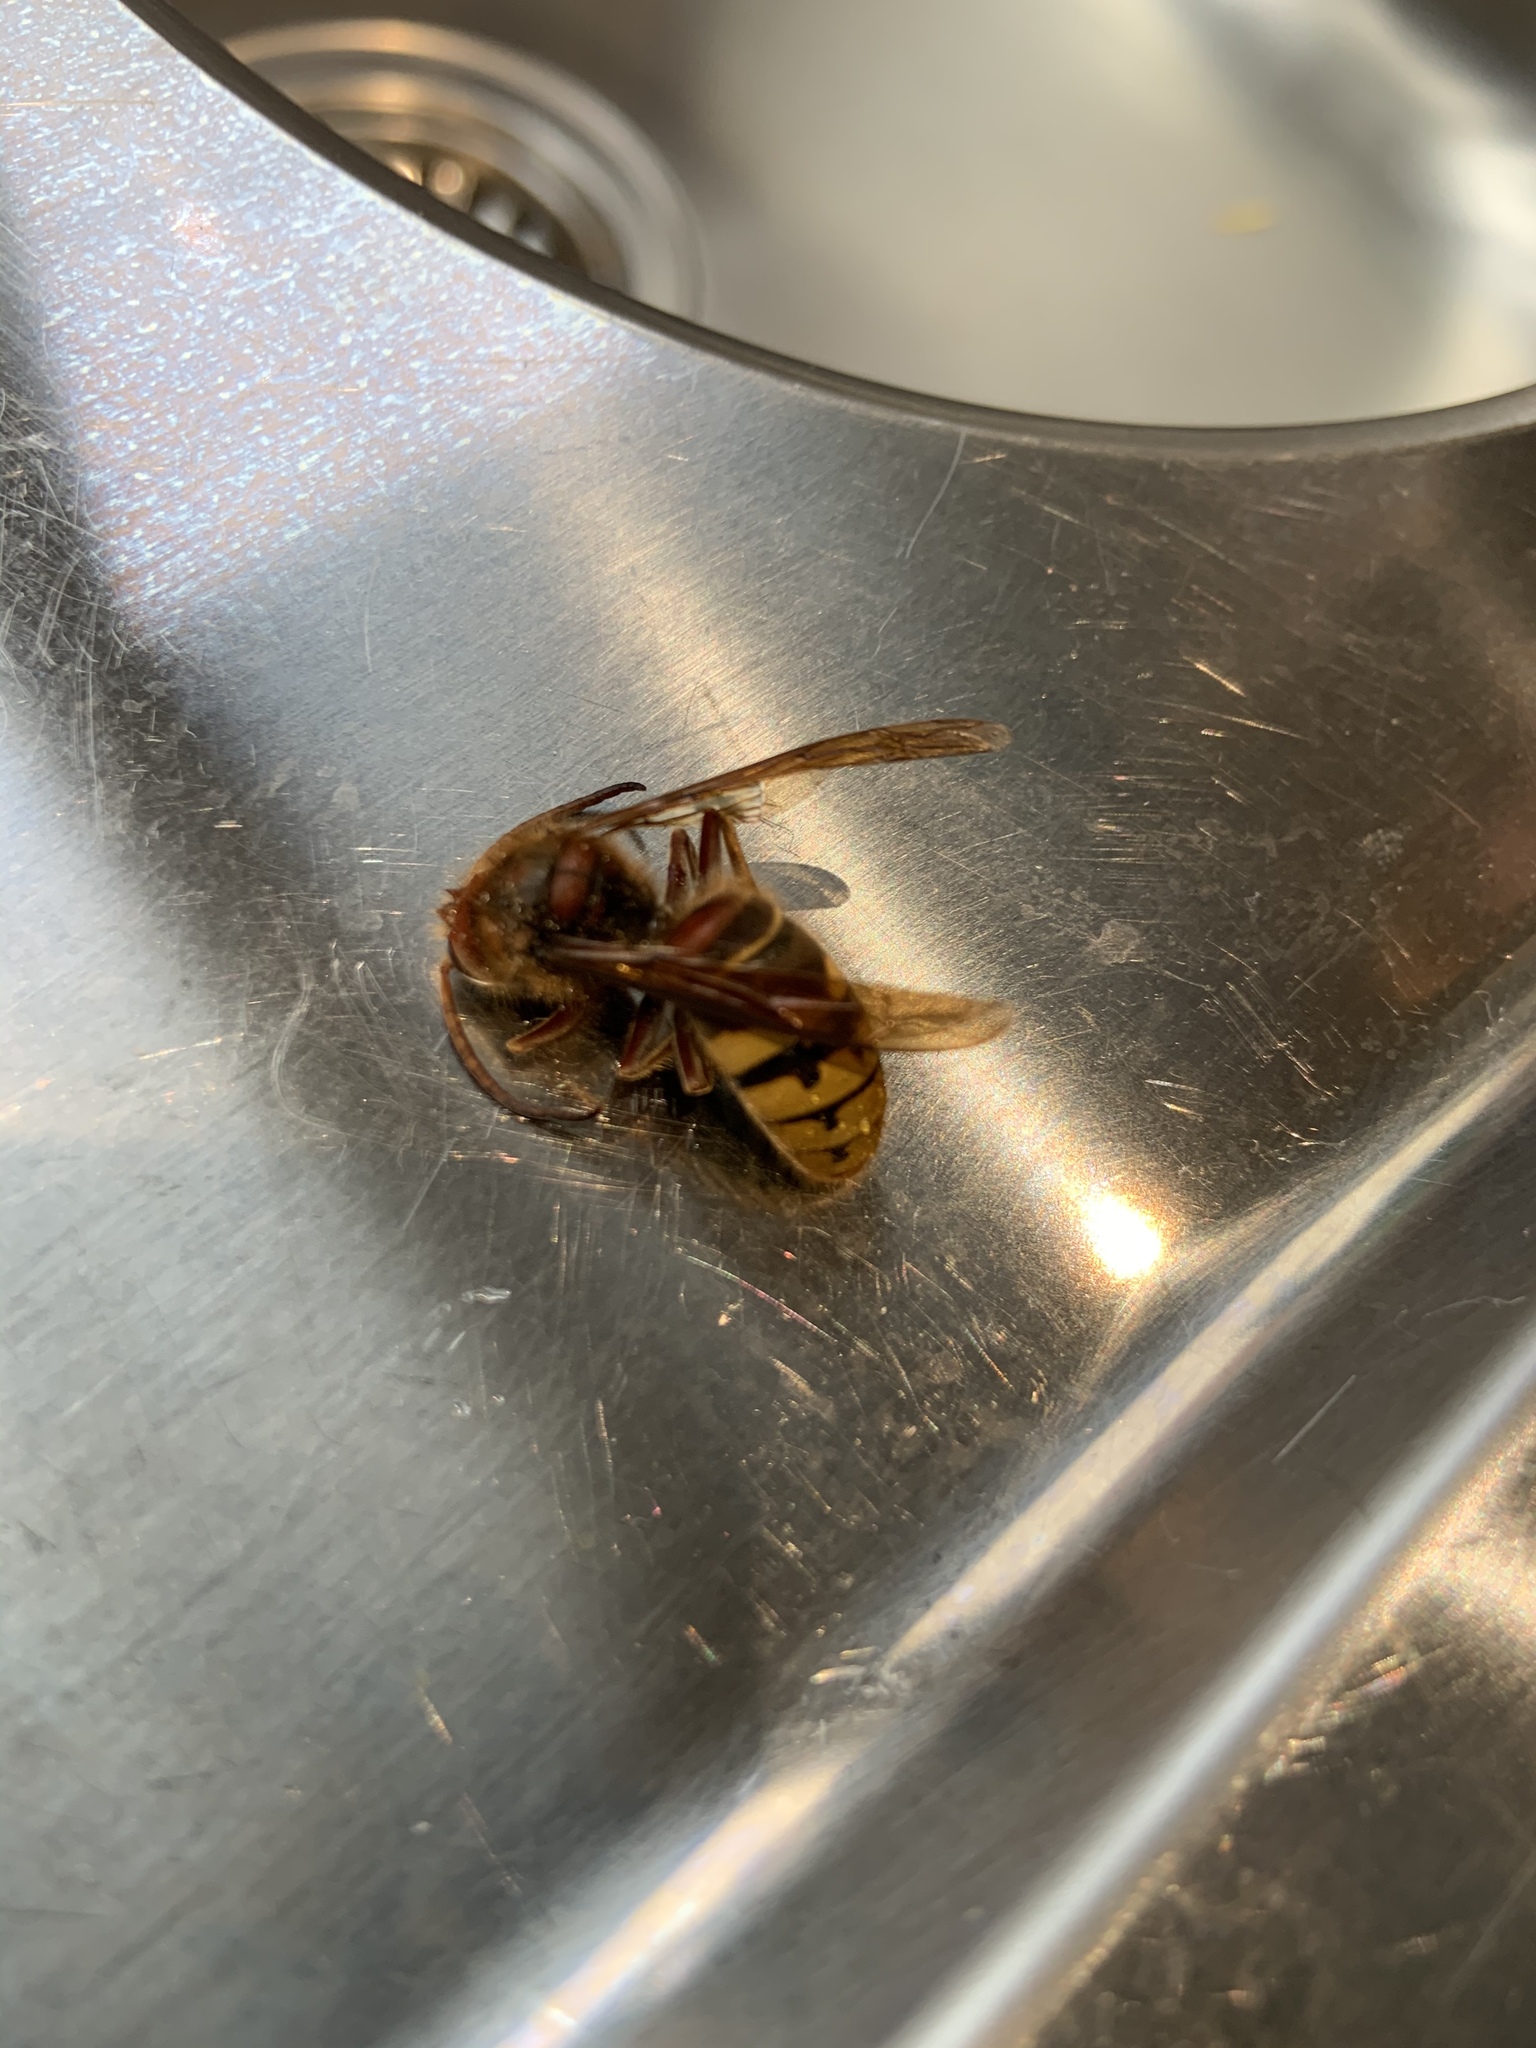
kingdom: Animalia
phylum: Arthropoda
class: Insecta
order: Hymenoptera
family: Vespidae
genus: Vespa
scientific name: Vespa crabro
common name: Hornet
